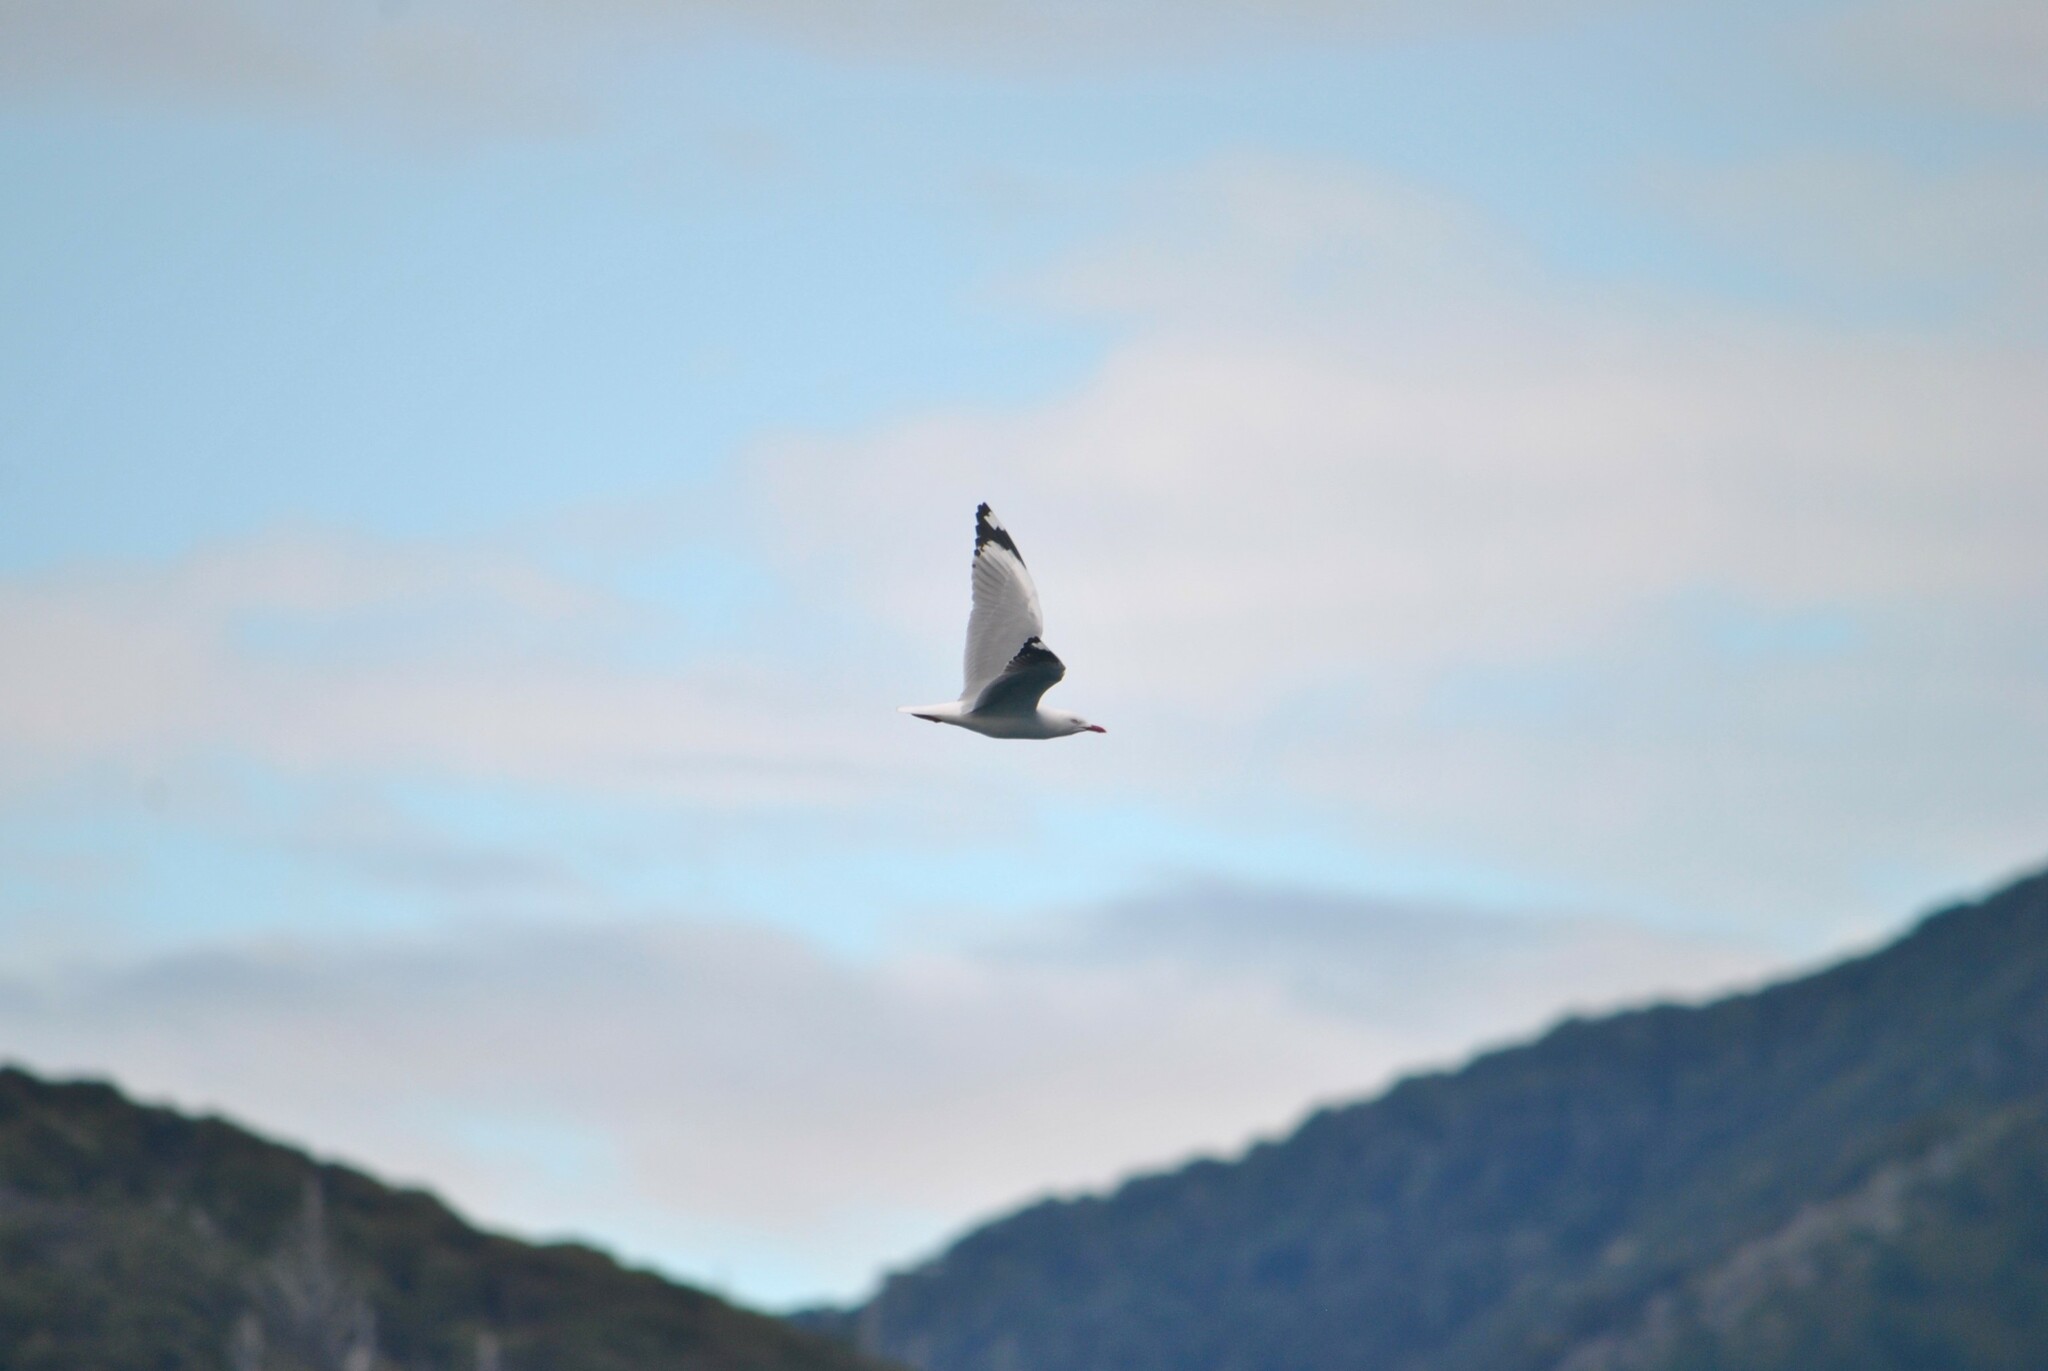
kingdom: Animalia
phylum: Chordata
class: Aves
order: Charadriiformes
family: Laridae
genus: Chroicocephalus
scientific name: Chroicocephalus novaehollandiae
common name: Silver gull
